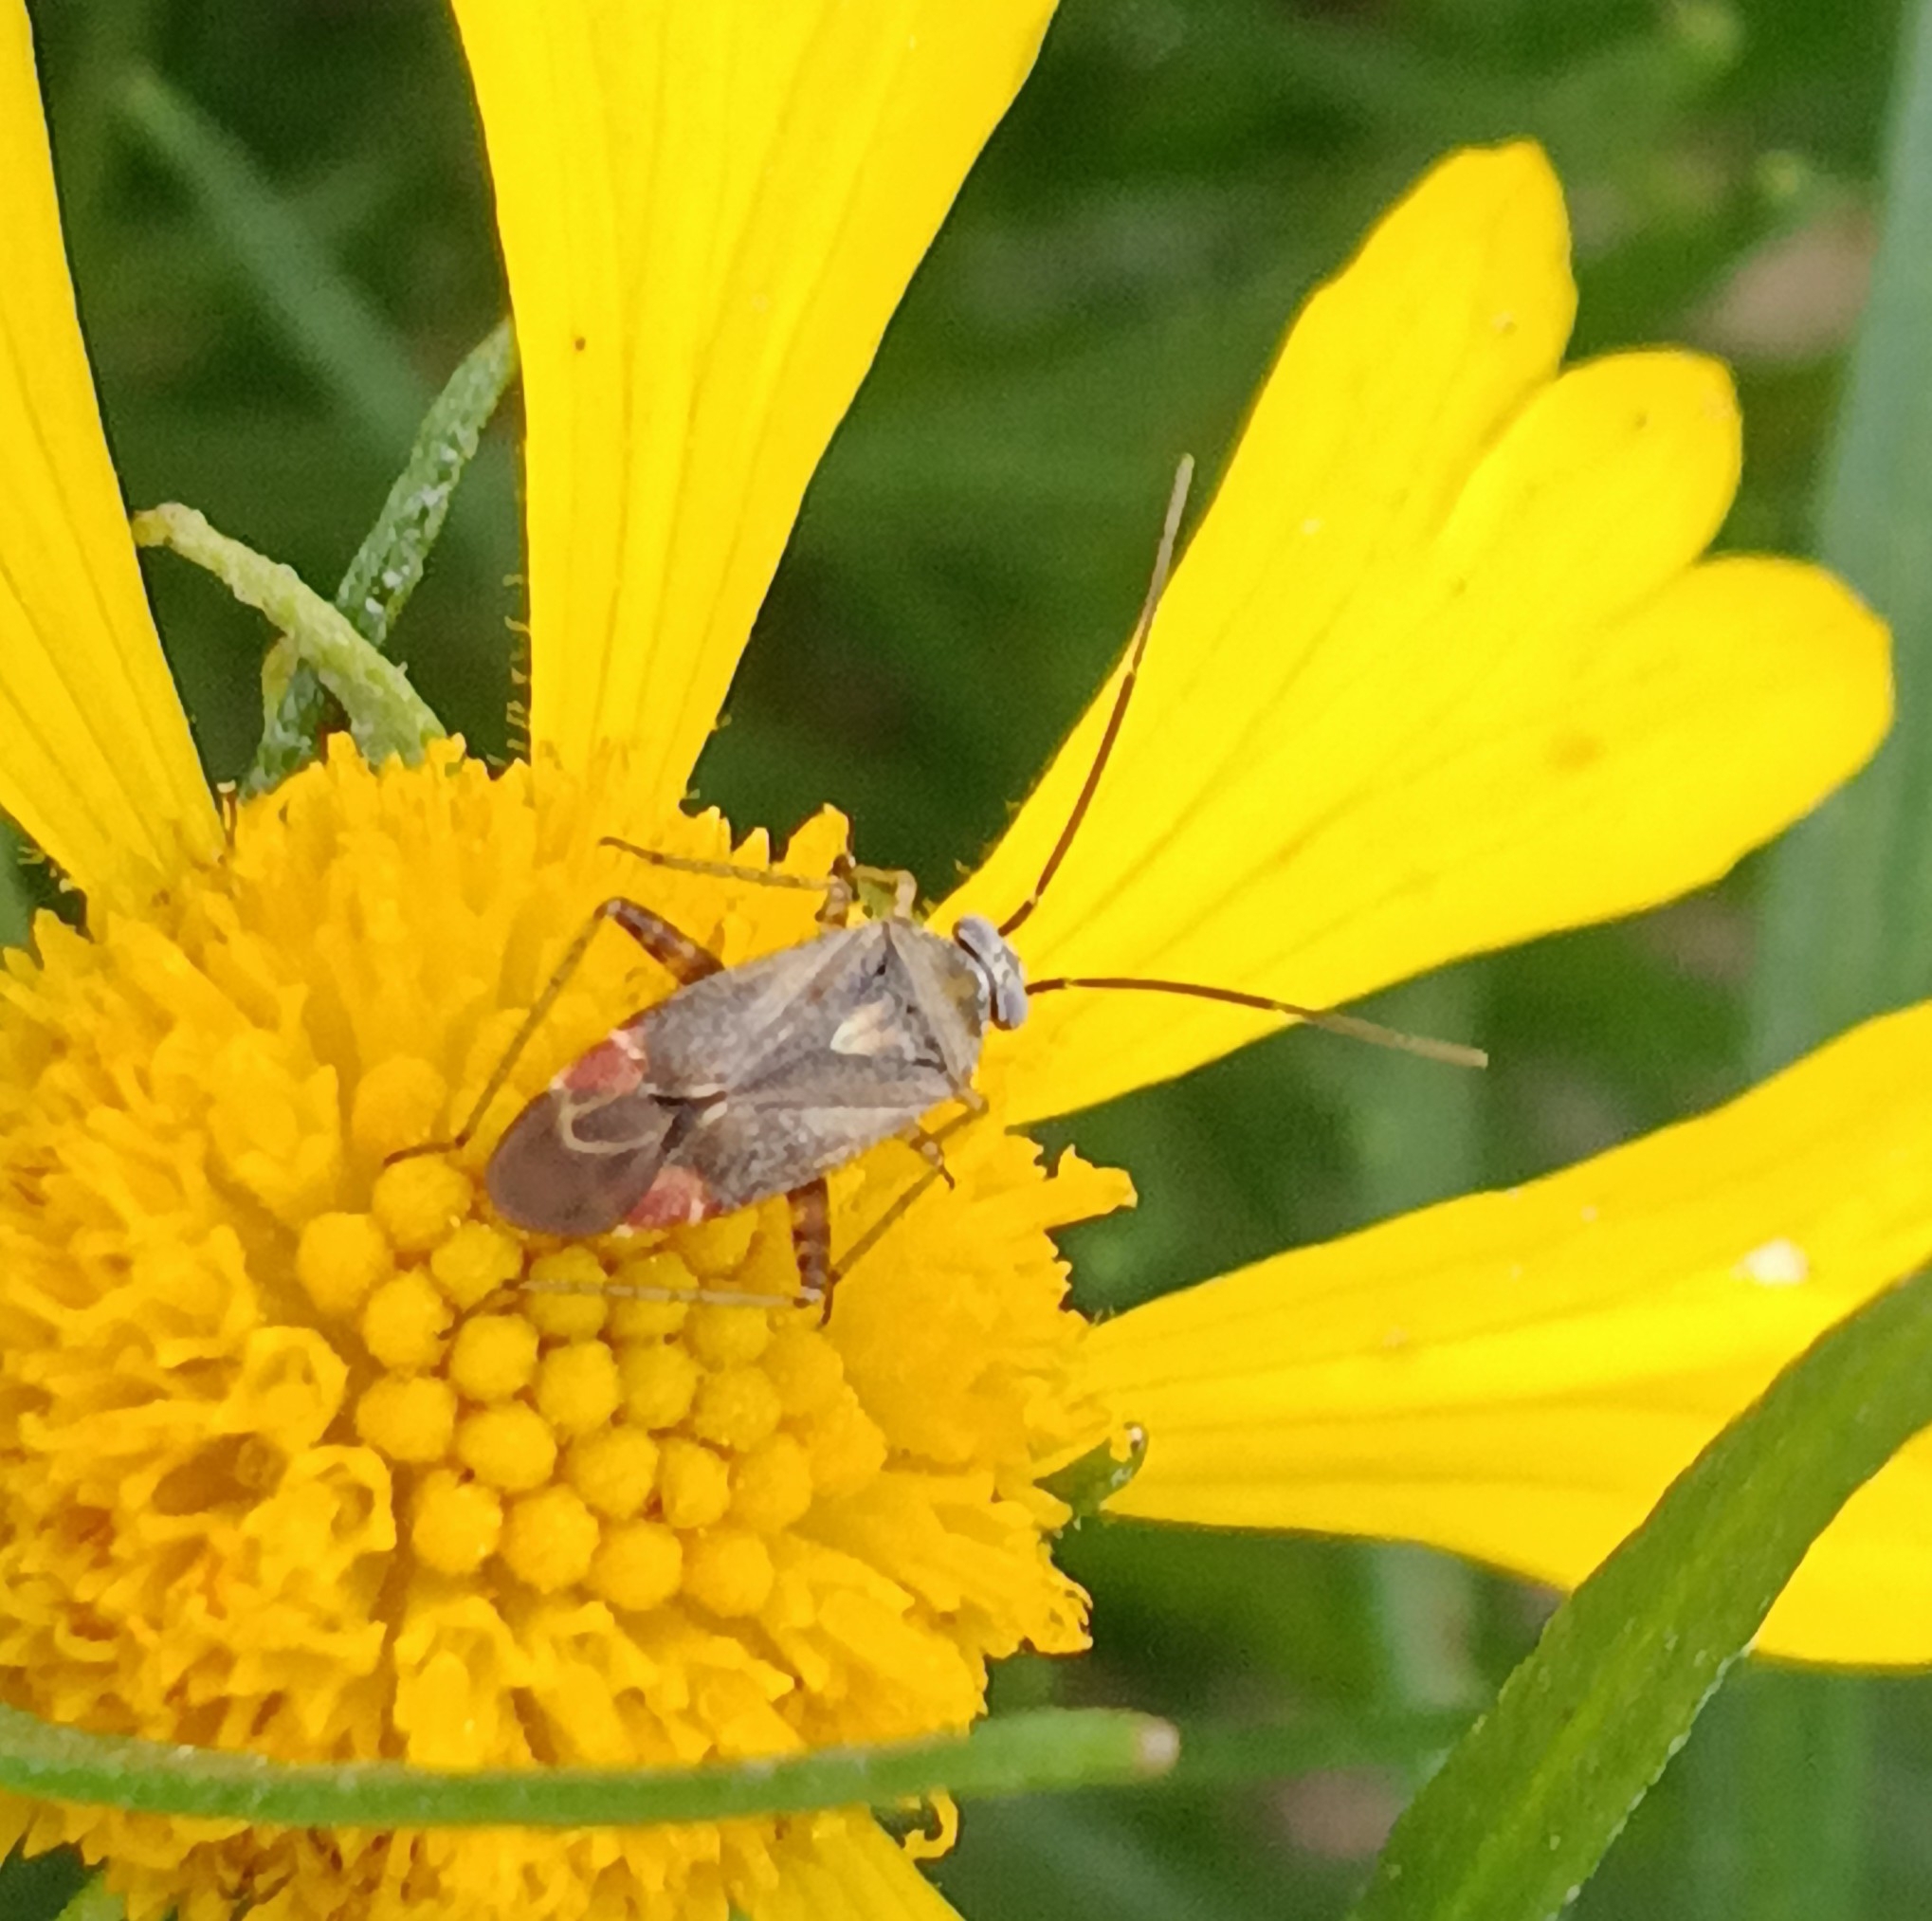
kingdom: Animalia
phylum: Arthropoda
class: Insecta
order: Hemiptera
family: Miridae
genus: Polymerus
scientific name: Polymerus basalis
